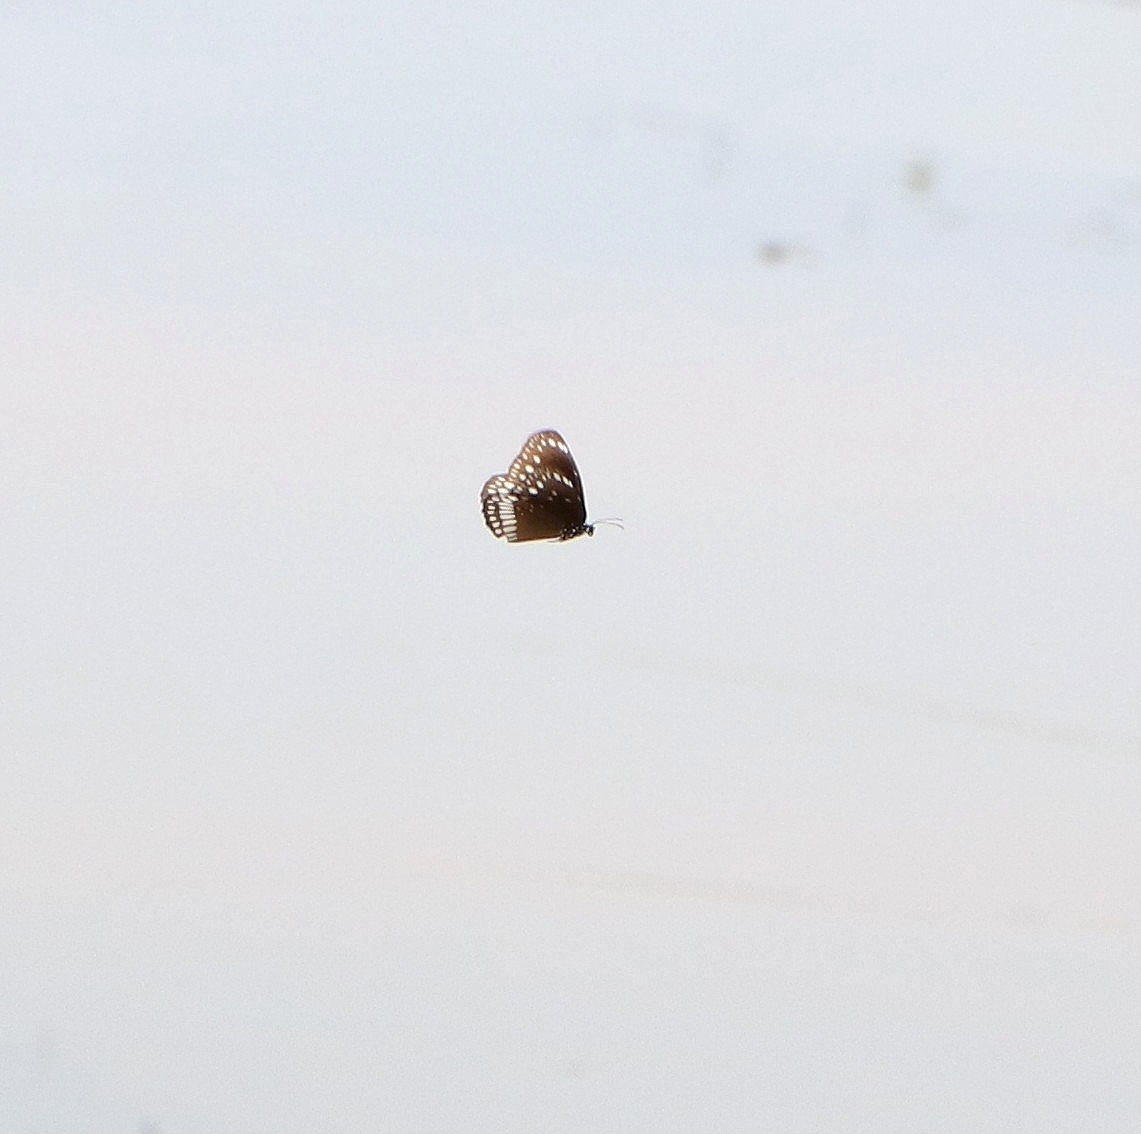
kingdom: Animalia
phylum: Arthropoda
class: Insecta
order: Lepidoptera
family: Nymphalidae
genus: Euploea
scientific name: Euploea core
